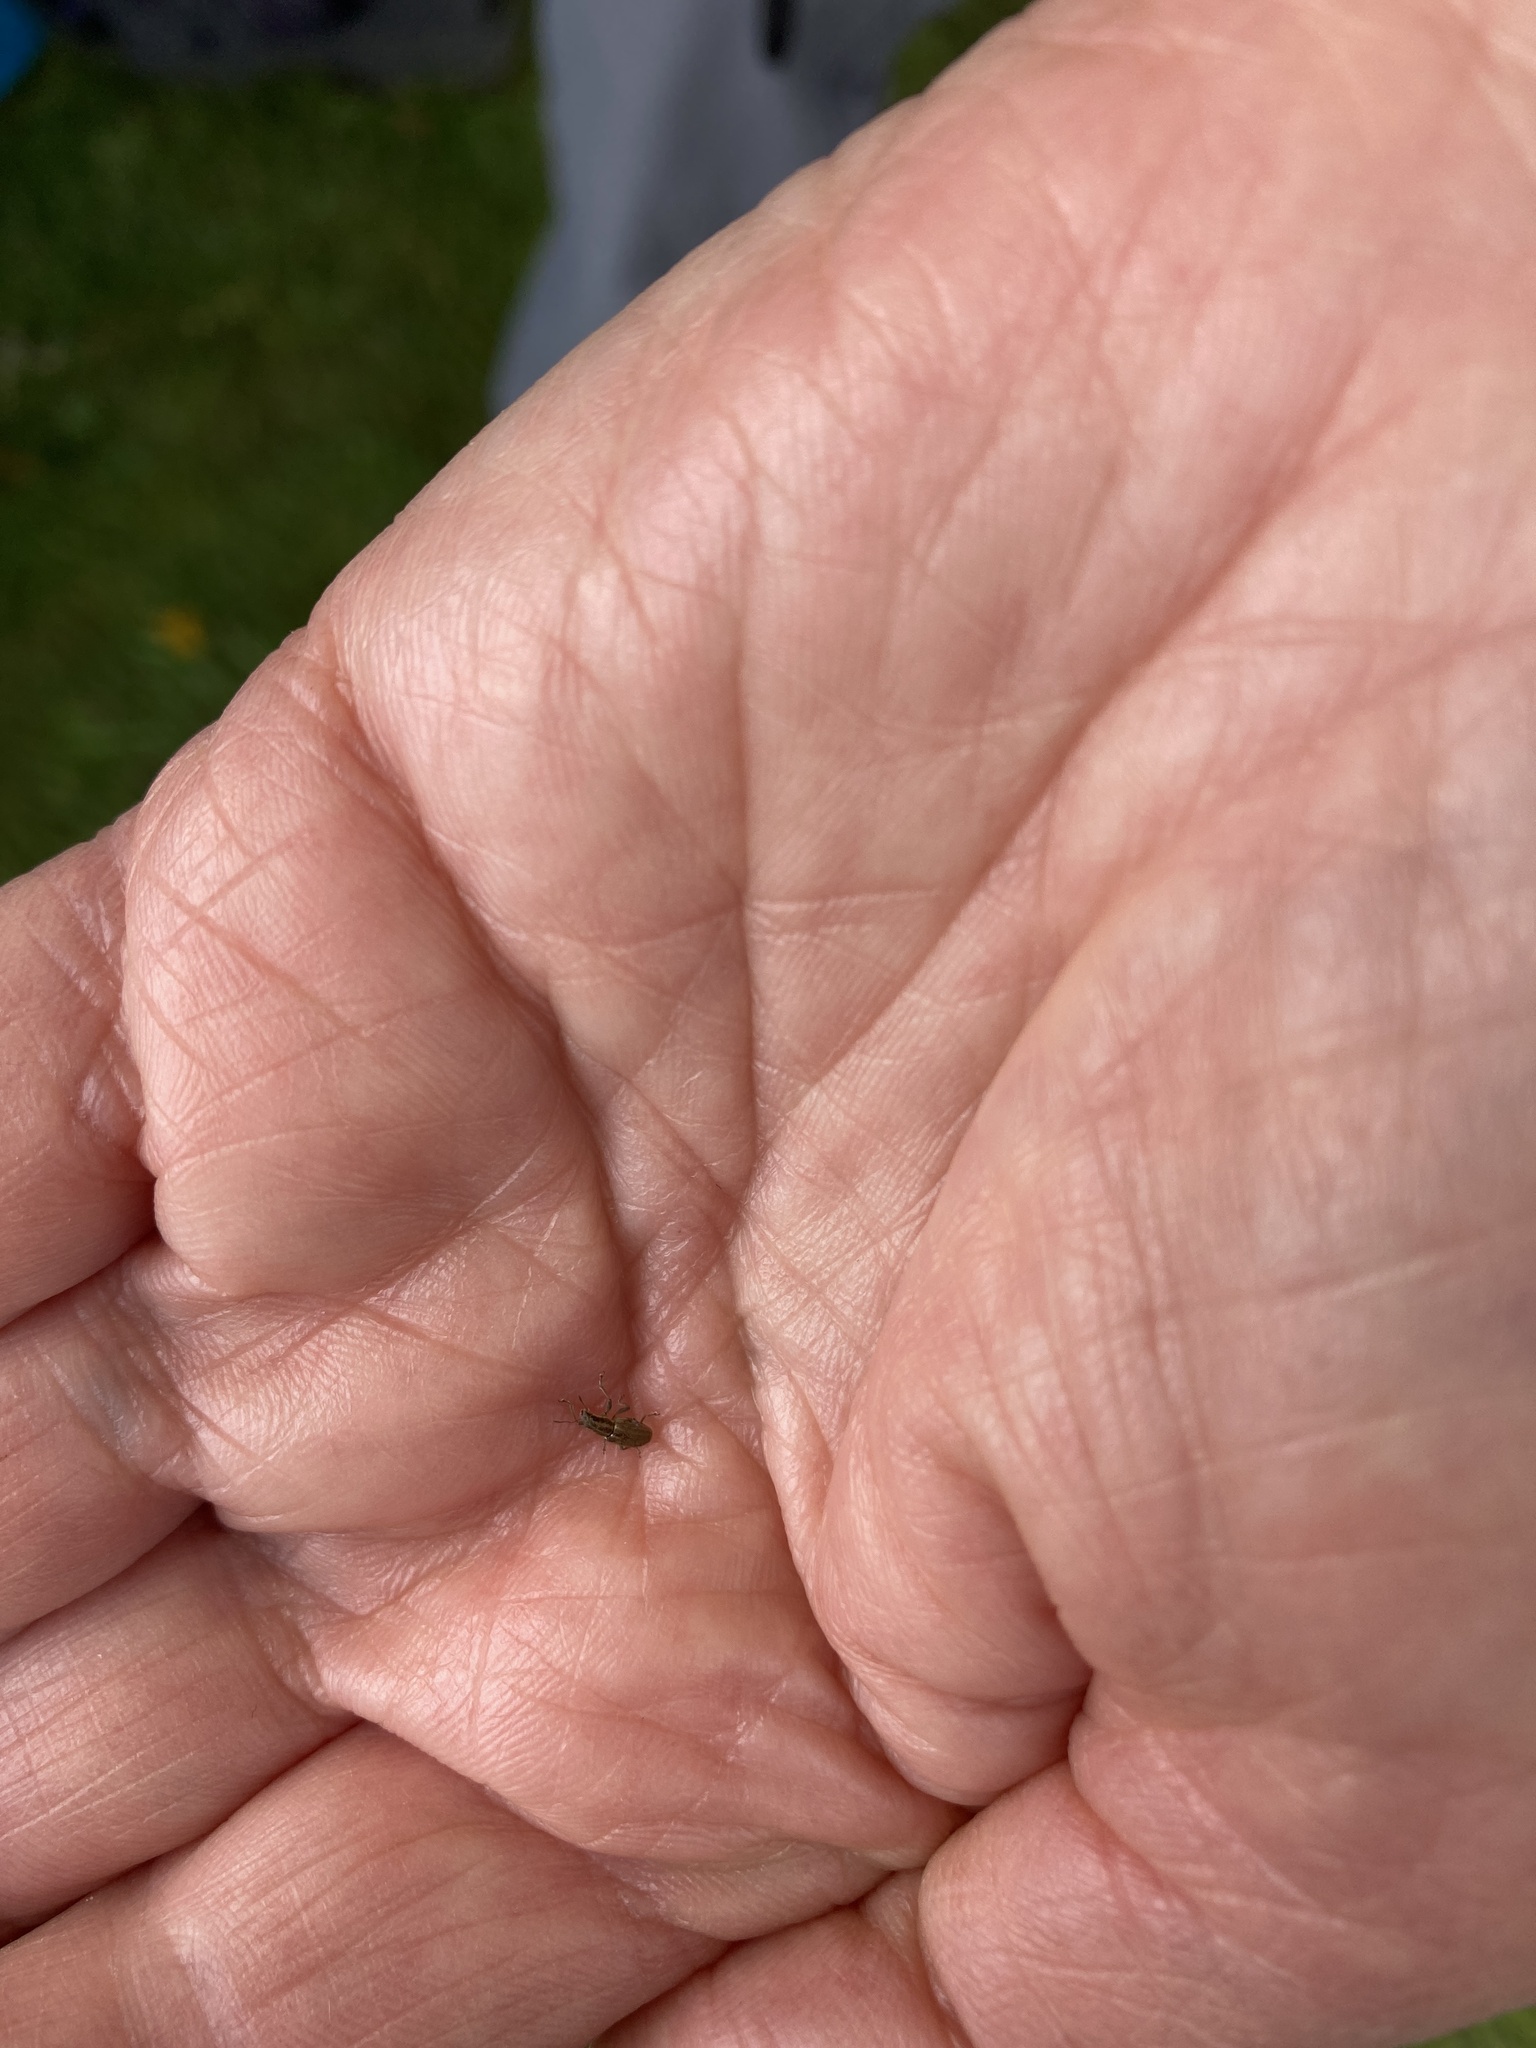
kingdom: Animalia
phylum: Arthropoda
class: Insecta
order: Coleoptera
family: Curculionidae
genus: Sitona
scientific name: Sitona lineatus
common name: Weevil
